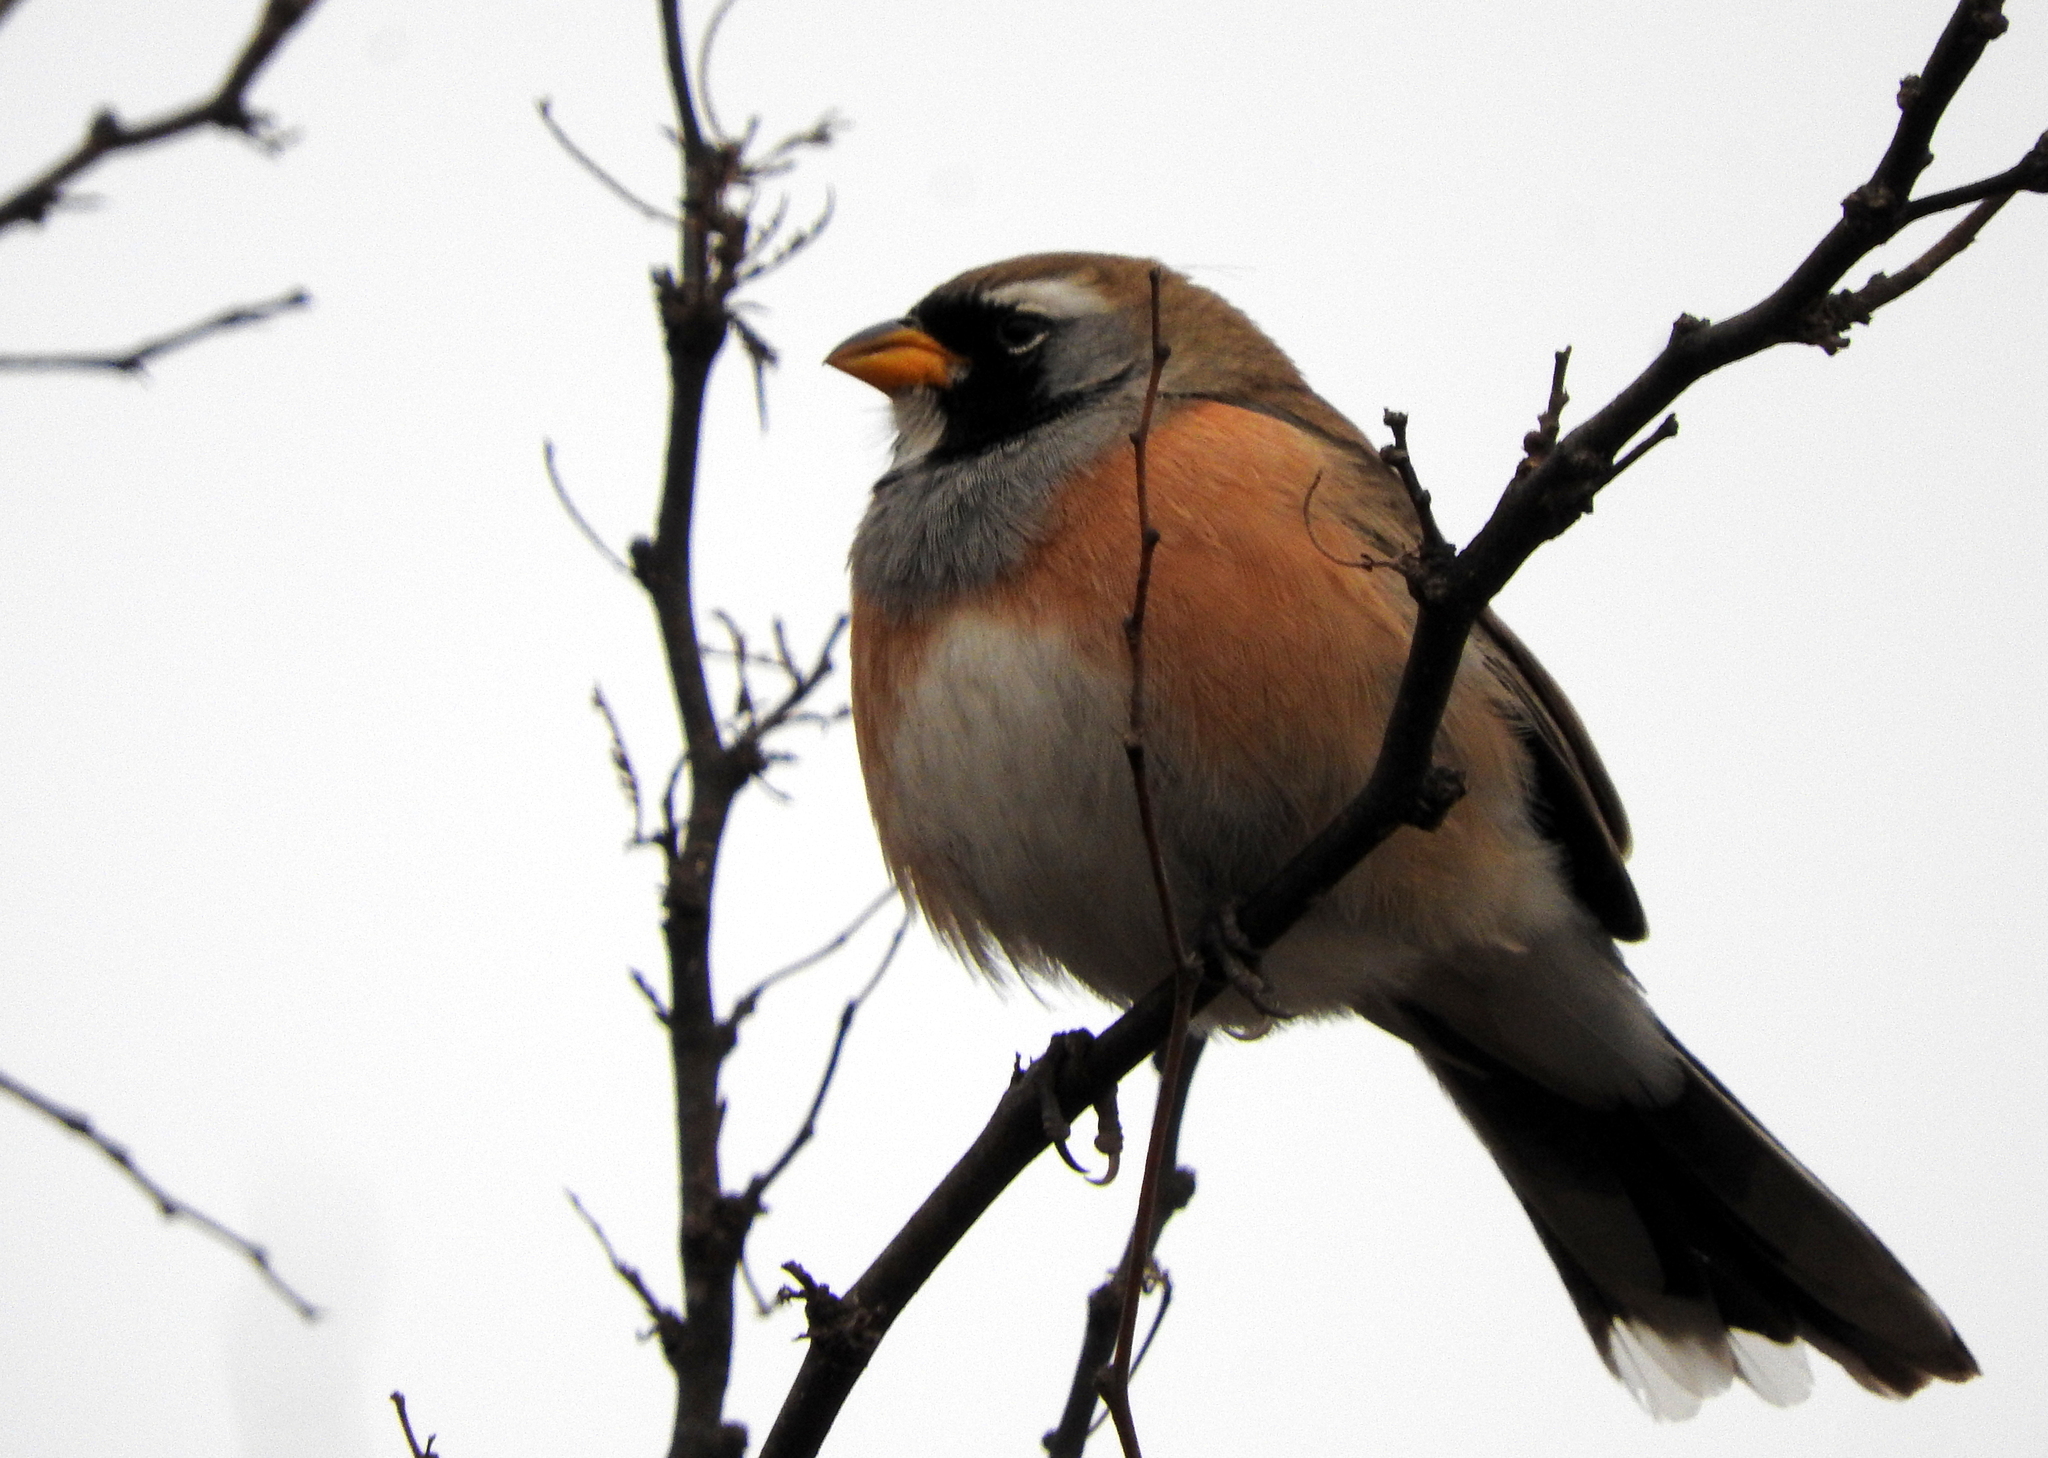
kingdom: Animalia
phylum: Chordata
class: Aves
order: Passeriformes
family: Thraupidae
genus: Saltatricula
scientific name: Saltatricula multicolor
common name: Many-colored chaco finch
